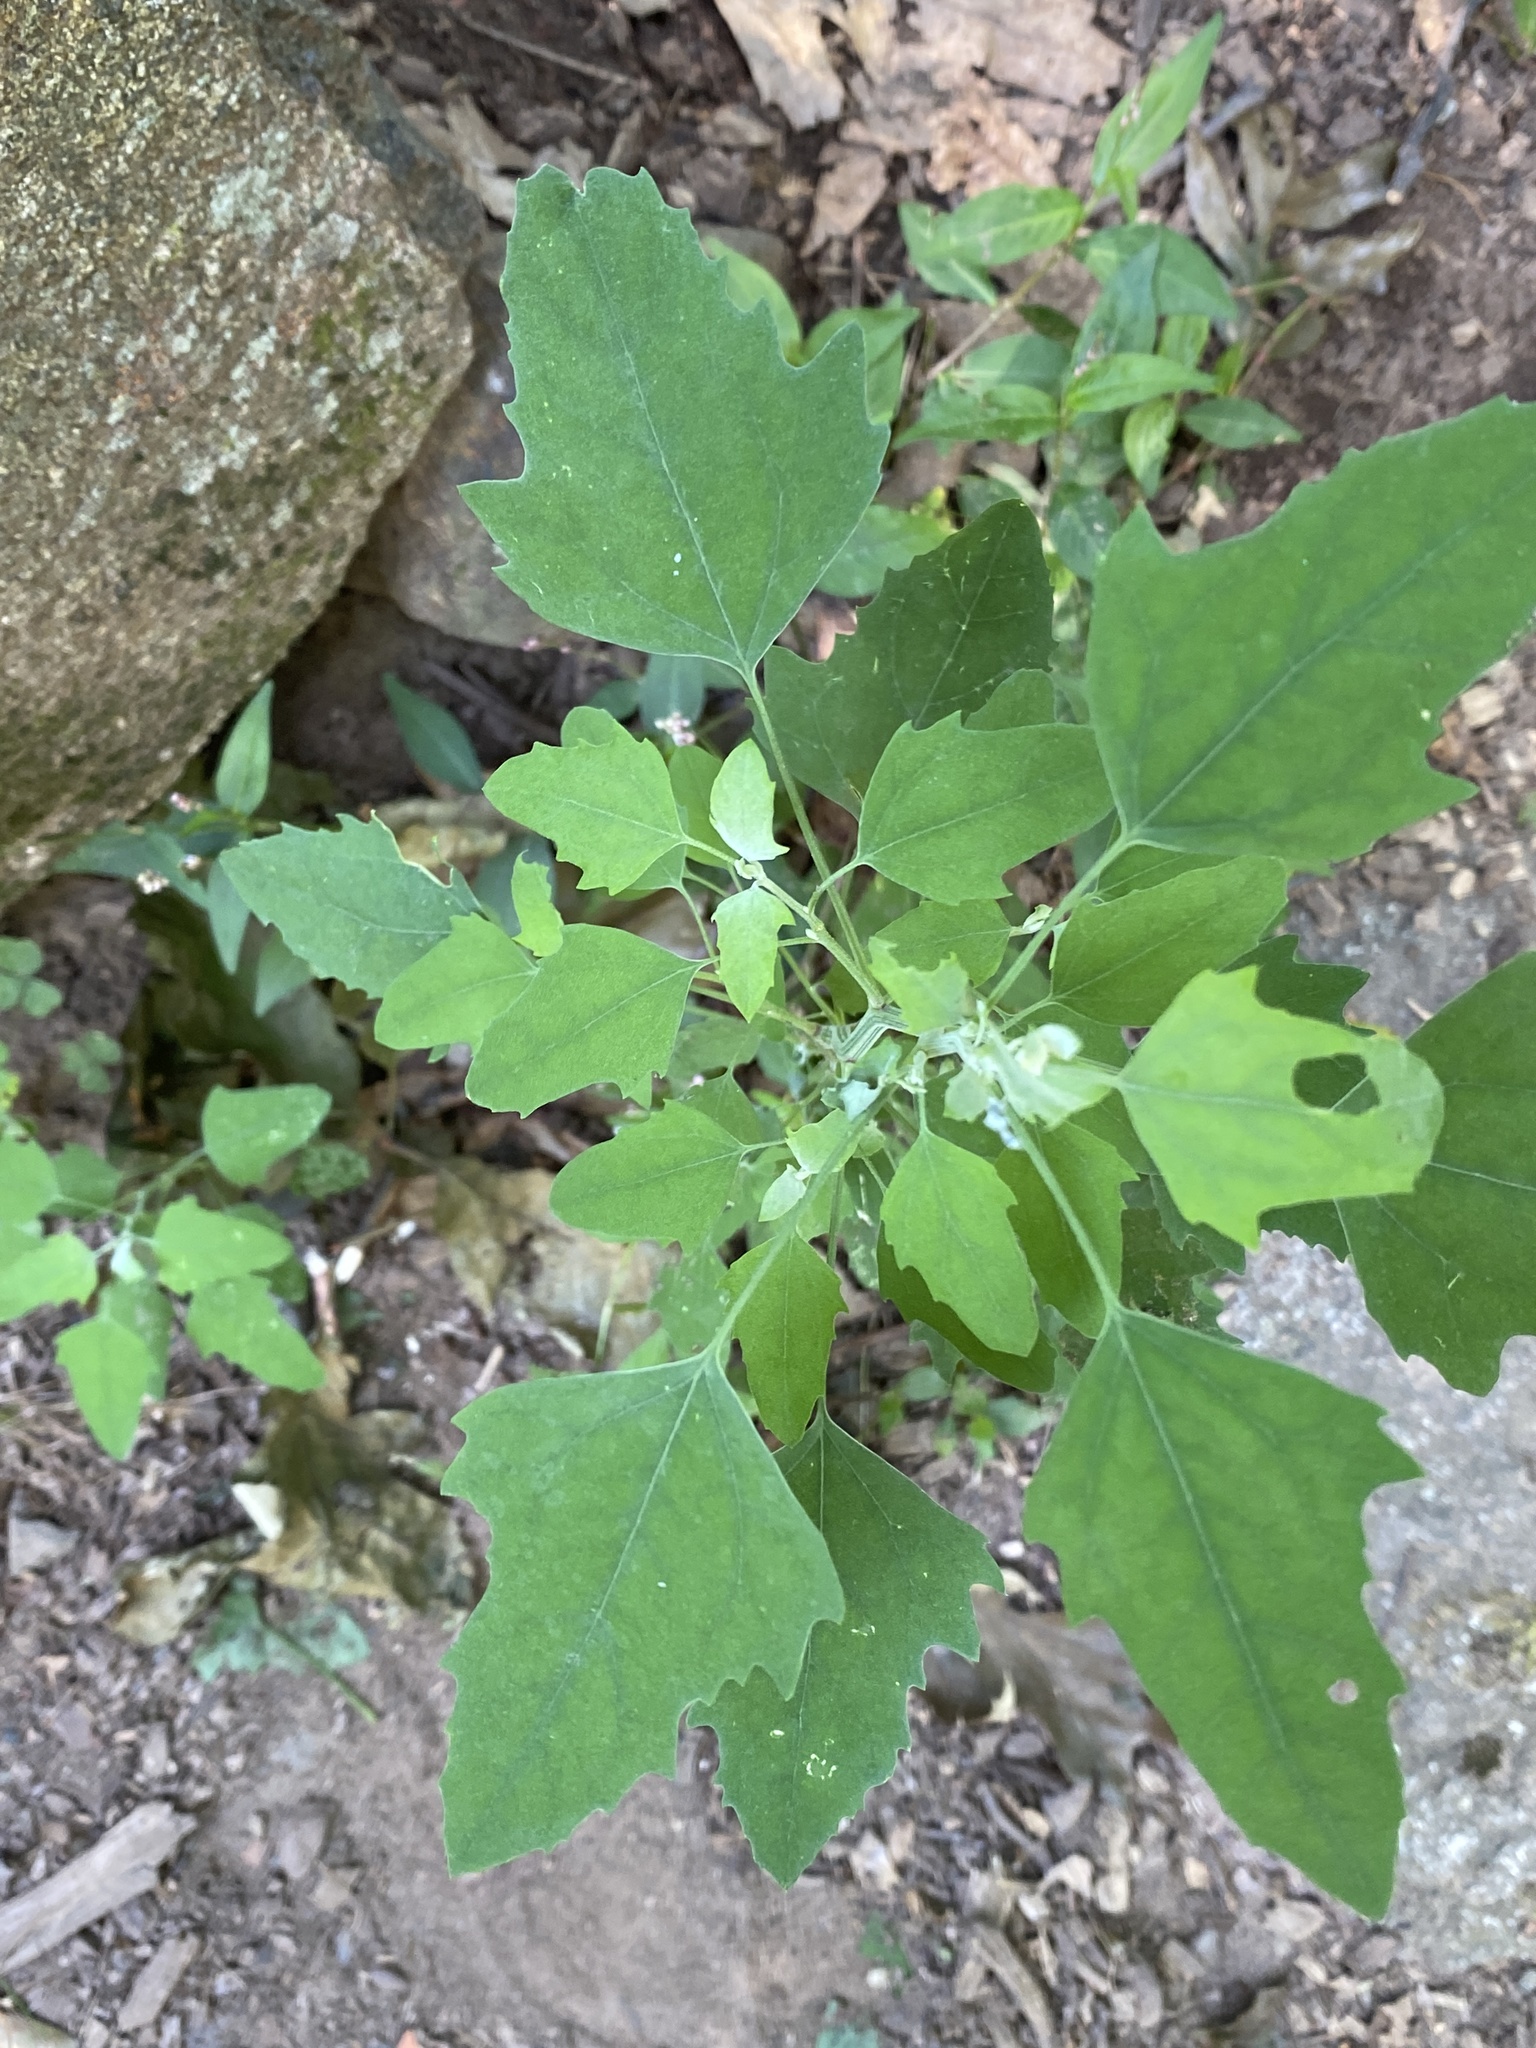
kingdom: Plantae
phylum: Tracheophyta
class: Magnoliopsida
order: Caryophyllales
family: Amaranthaceae
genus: Chenopodium
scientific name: Chenopodium album
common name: Fat-hen
